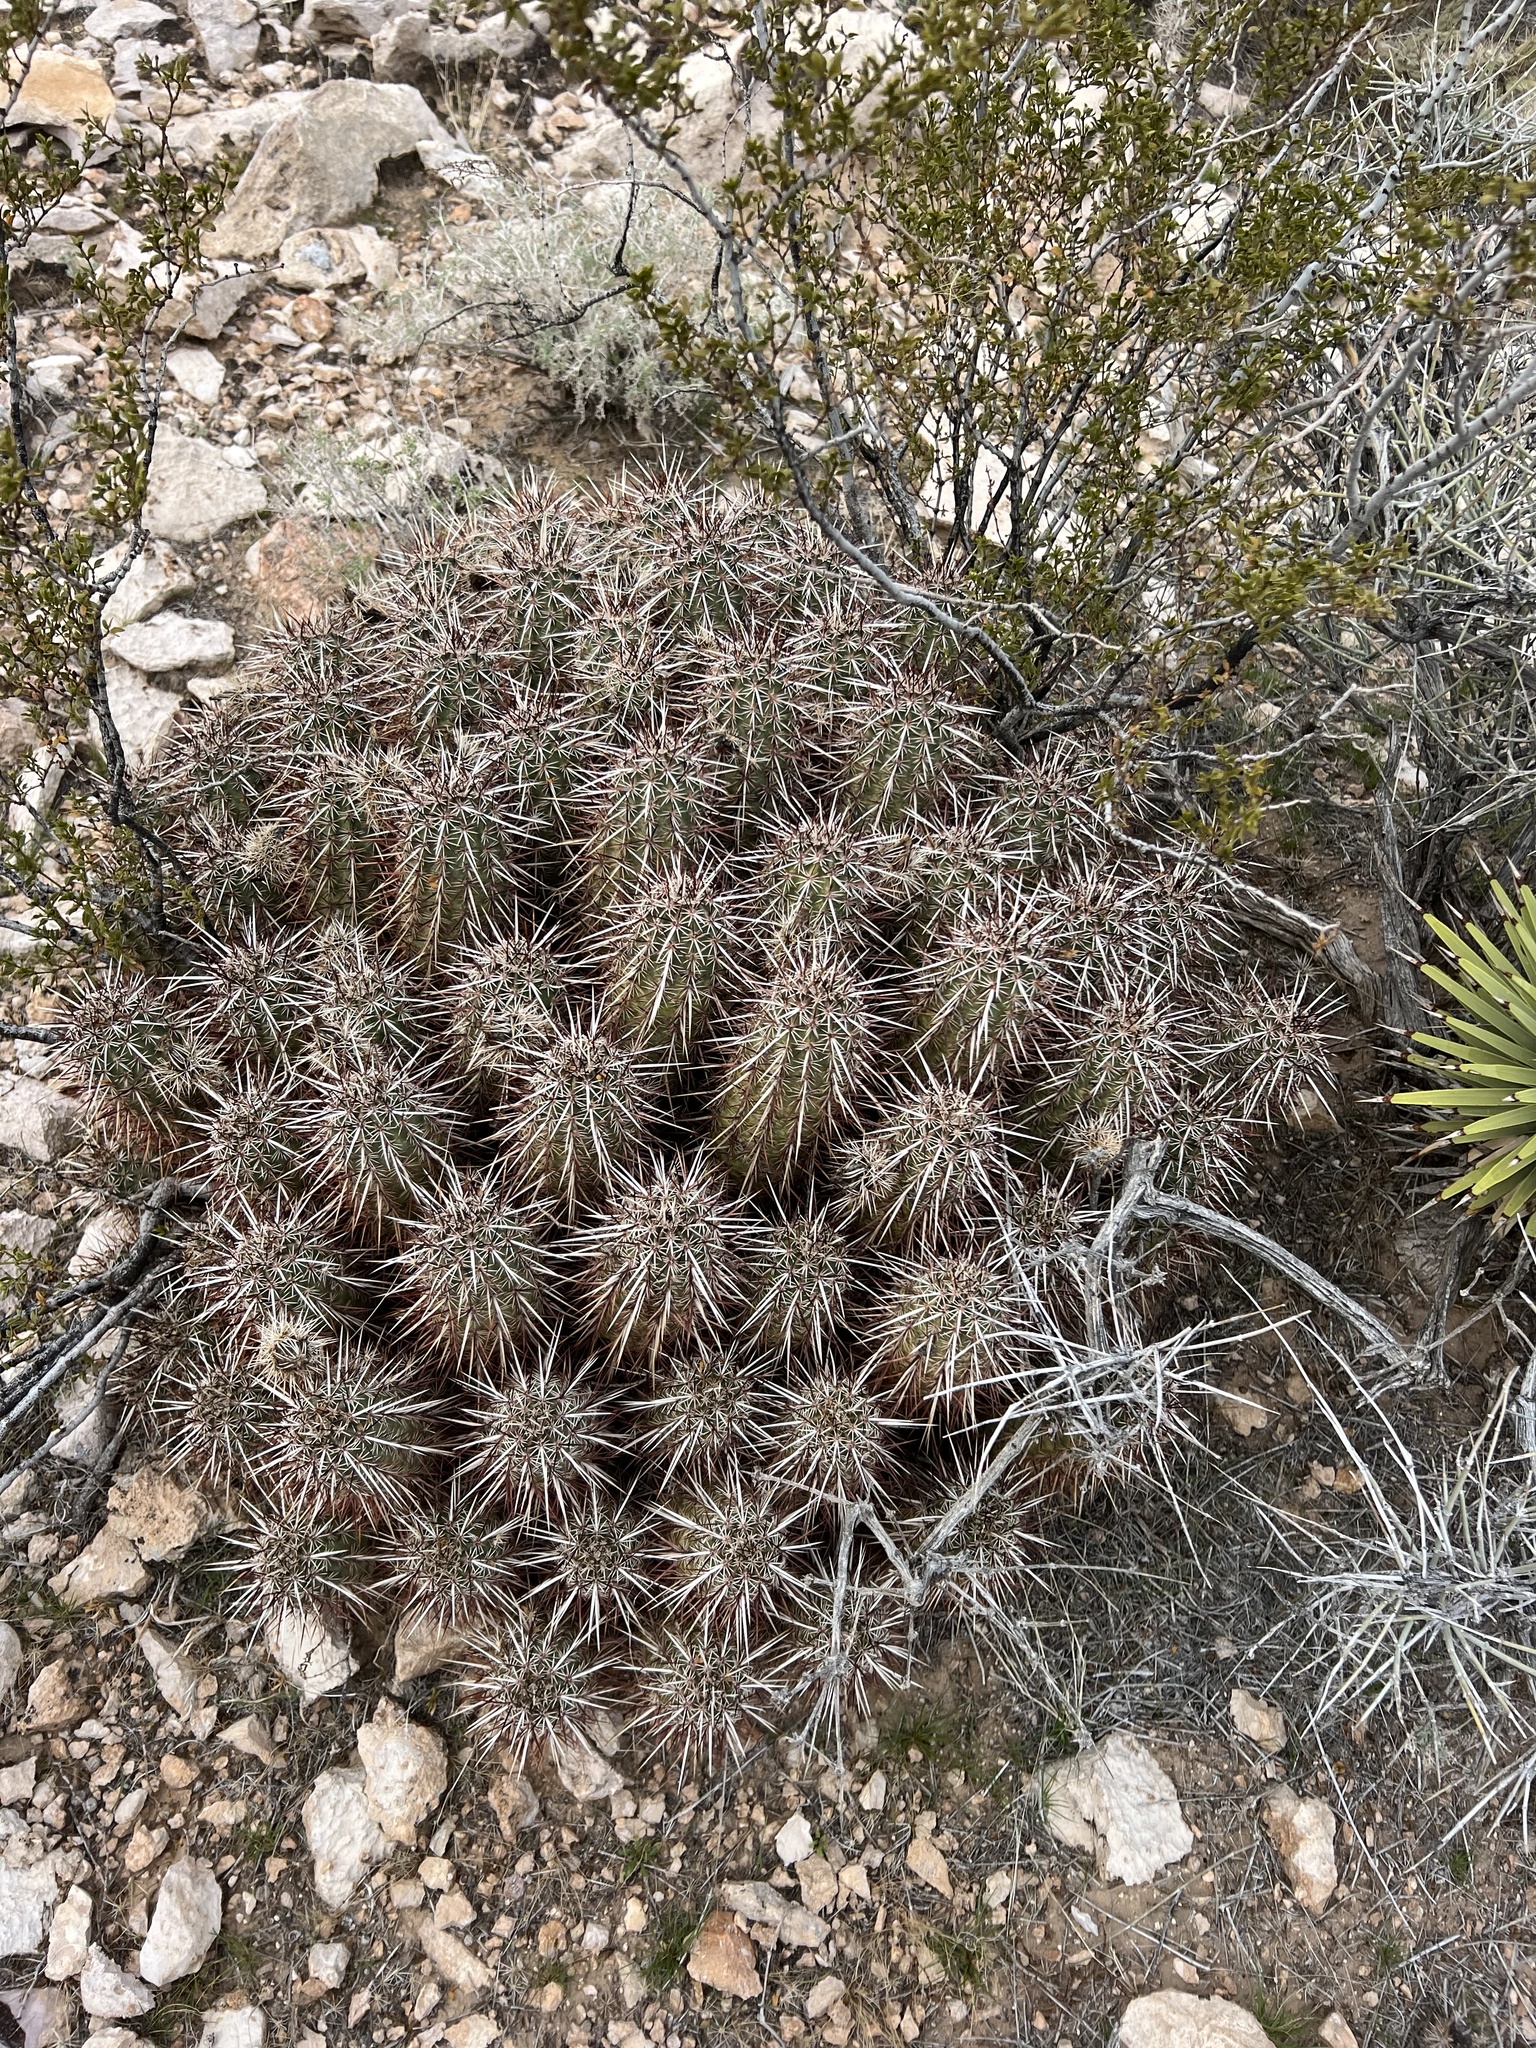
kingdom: Plantae
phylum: Tracheophyta
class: Magnoliopsida
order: Caryophyllales
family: Cactaceae
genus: Echinocereus
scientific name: Echinocereus engelmannii
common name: Engelmann's hedgehog cactus
